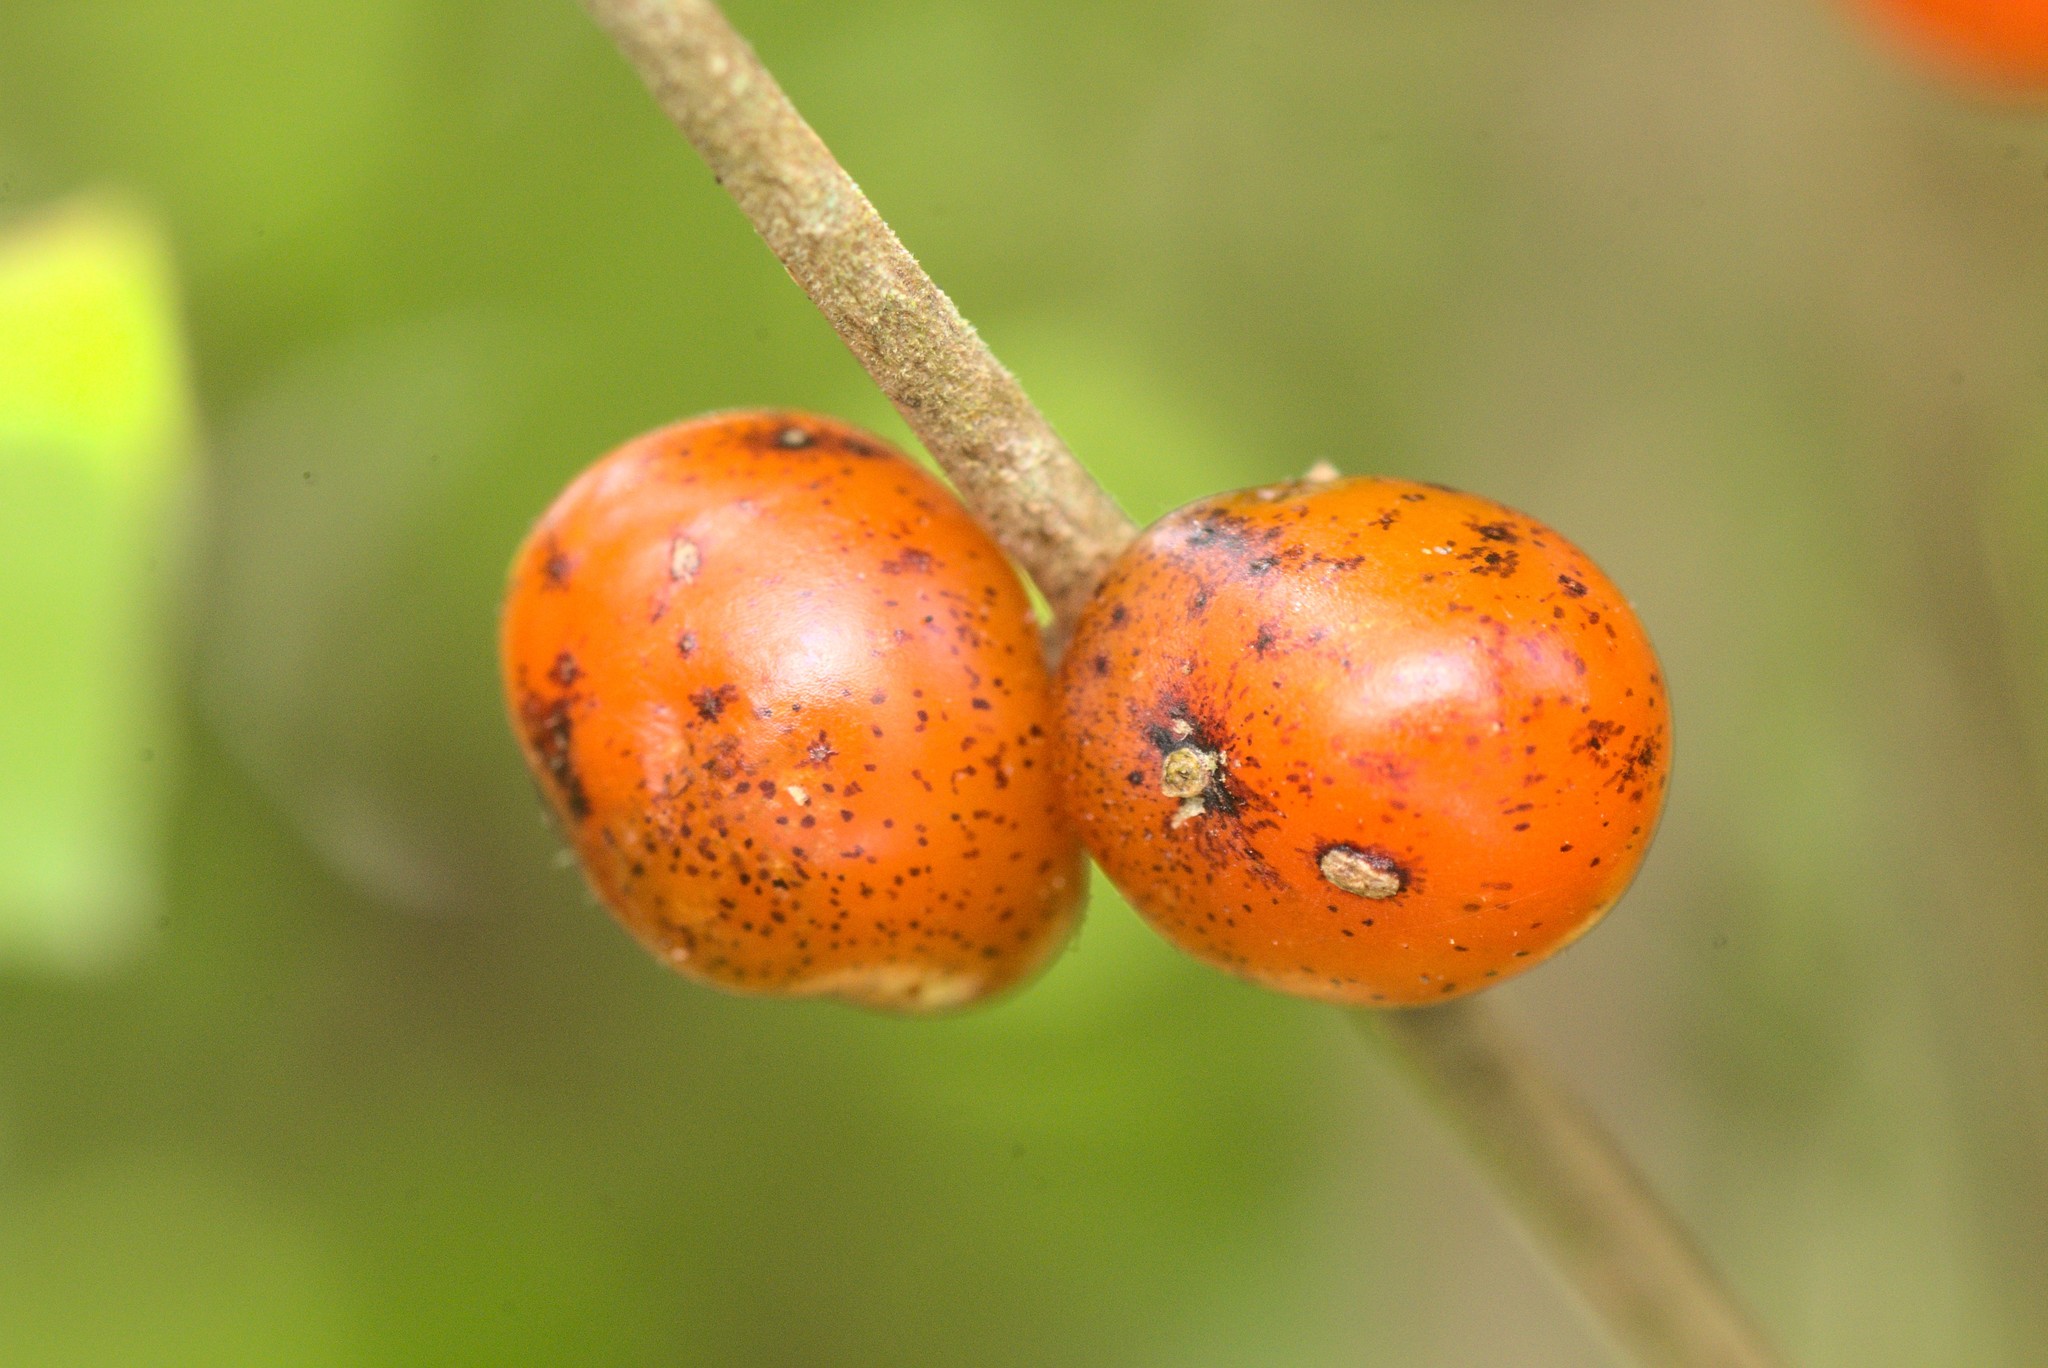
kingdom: Plantae
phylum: Tracheophyta
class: Magnoliopsida
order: Gentianales
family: Rubiaceae
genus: Coprosma
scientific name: Coprosma rotundifolia
